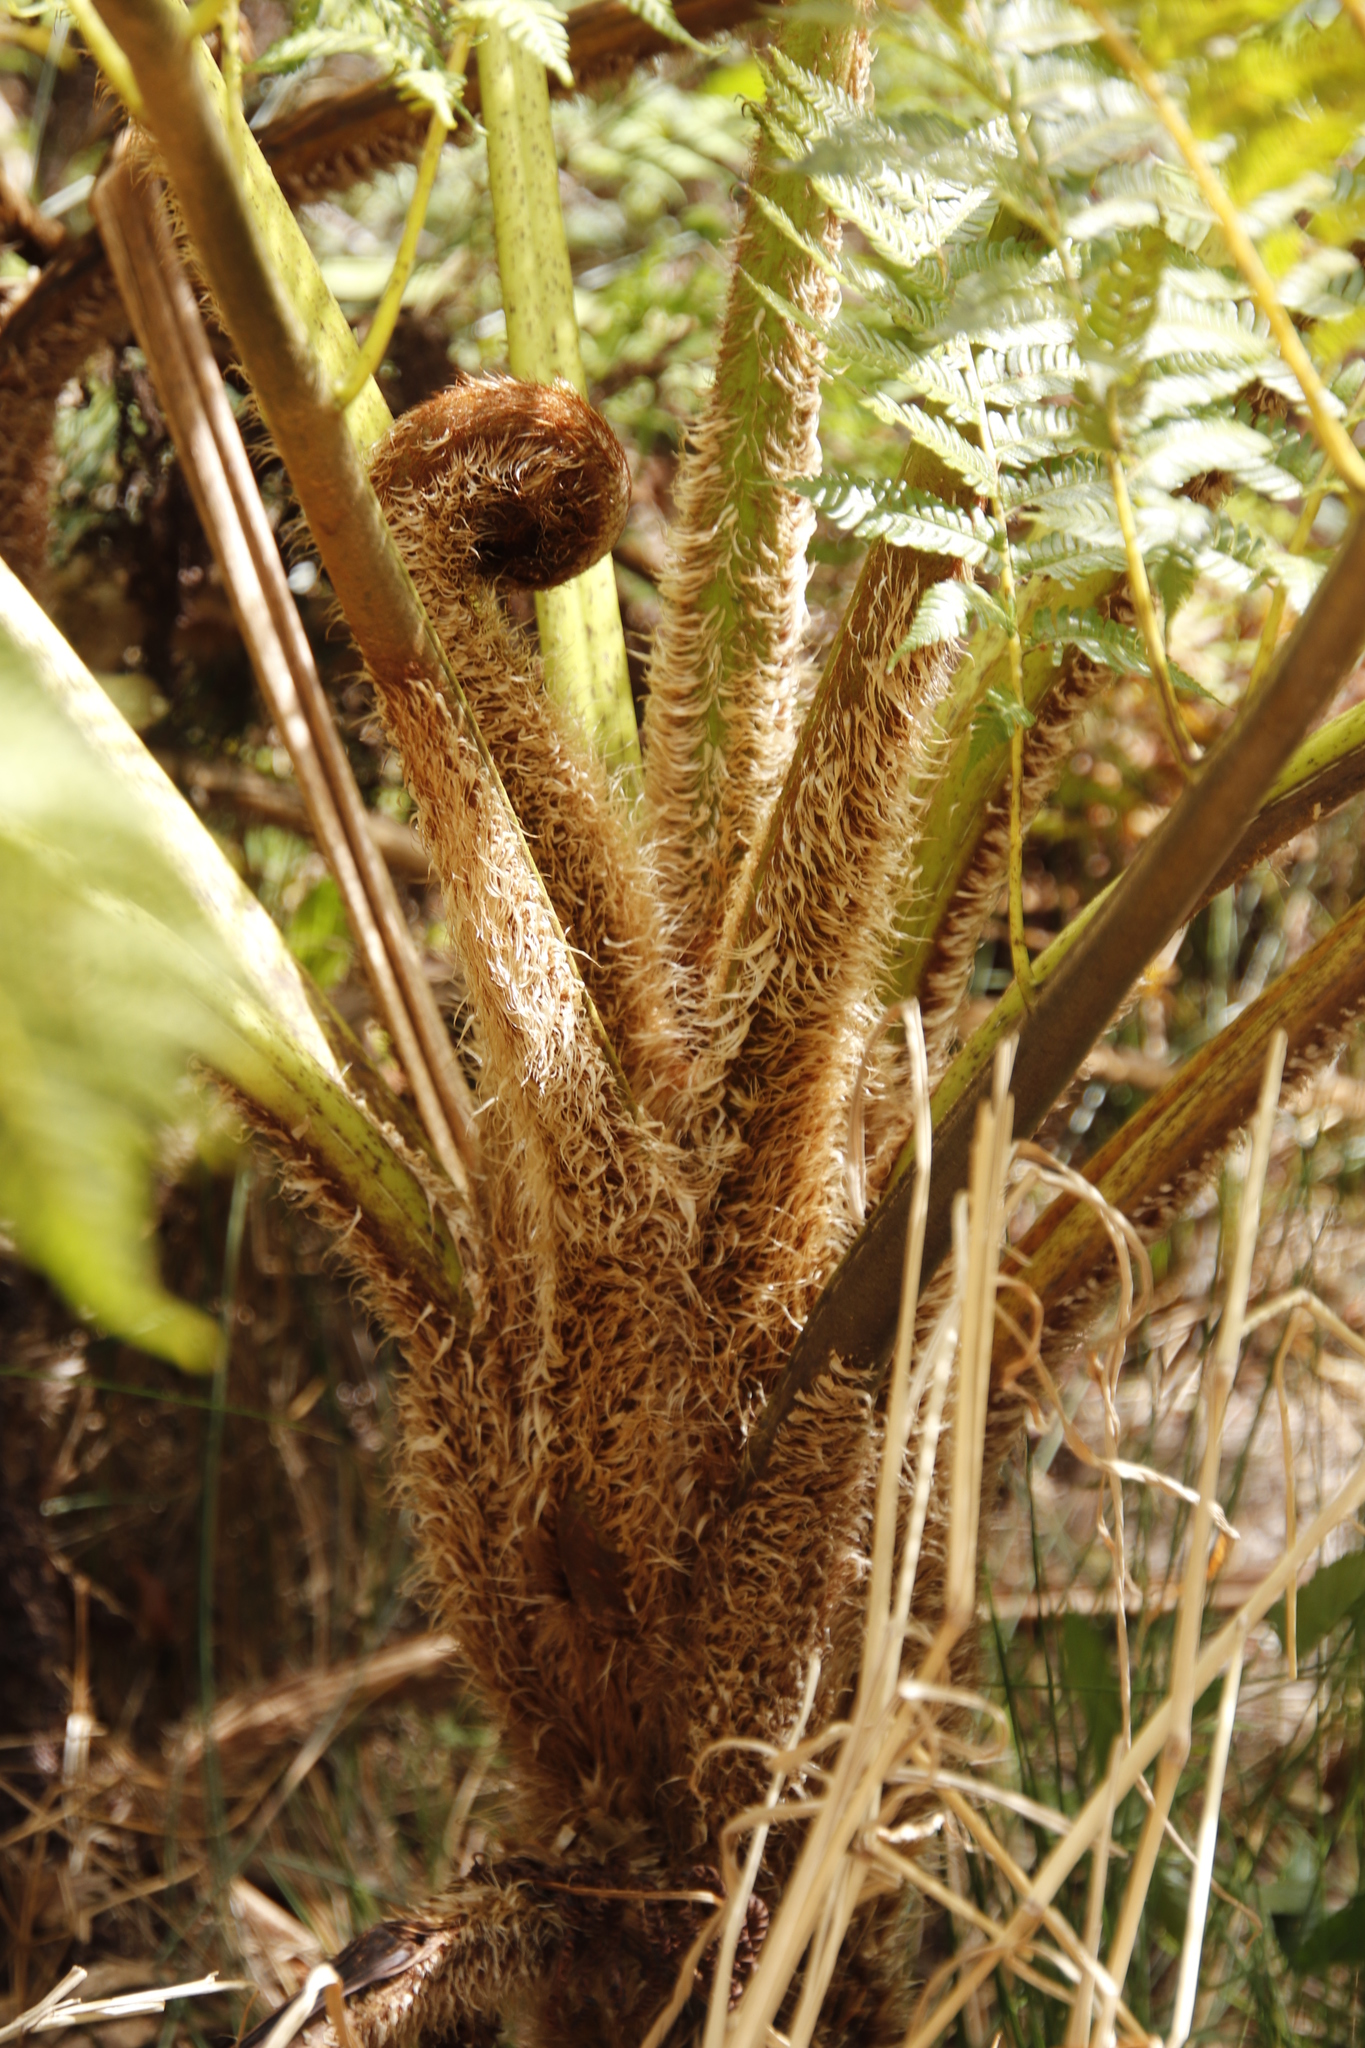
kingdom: Plantae
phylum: Tracheophyta
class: Polypodiopsida
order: Cyatheales
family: Cyatheaceae
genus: Sphaeropteris
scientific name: Sphaeropteris cooperi
